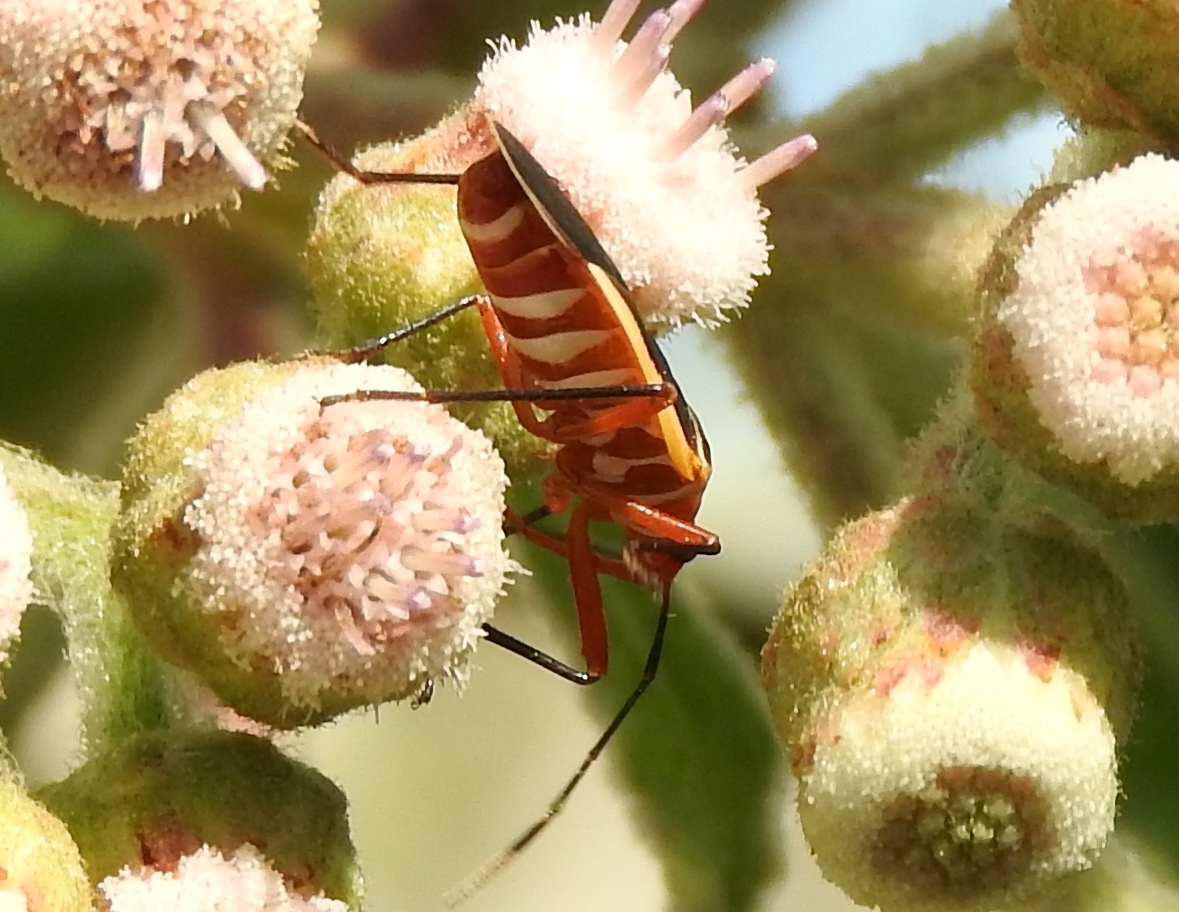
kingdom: Animalia
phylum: Arthropoda
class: Insecta
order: Hemiptera
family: Pyrrhocoridae
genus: Dysdercus
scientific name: Dysdercus obscuratus
